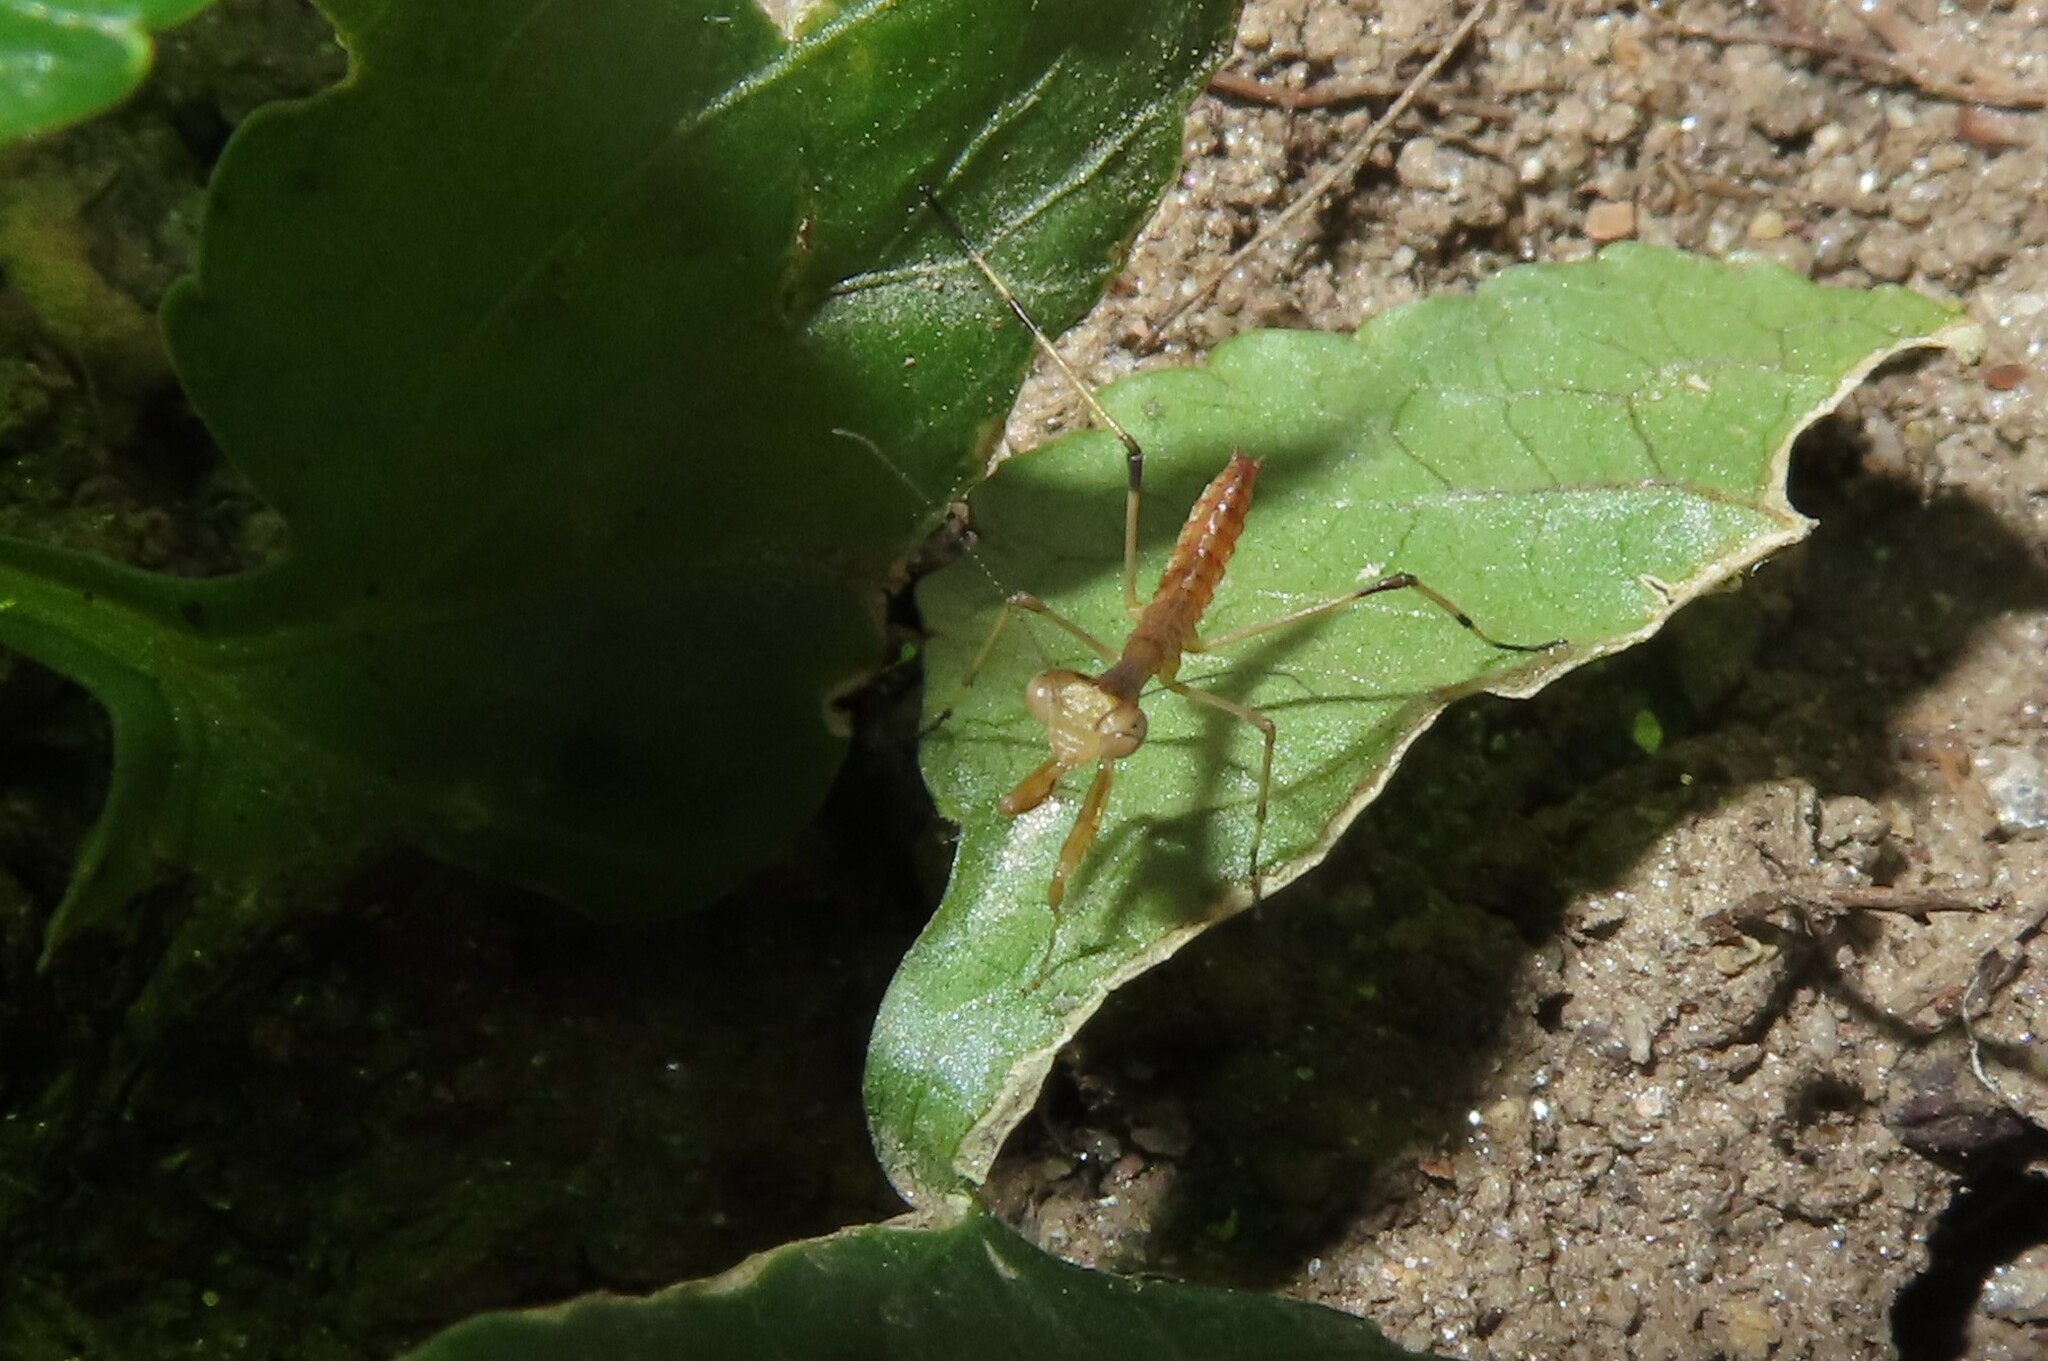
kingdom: Animalia
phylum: Arthropoda
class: Insecta
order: Mantodea
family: Mantidae
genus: Stagmomantis
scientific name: Stagmomantis carolina
